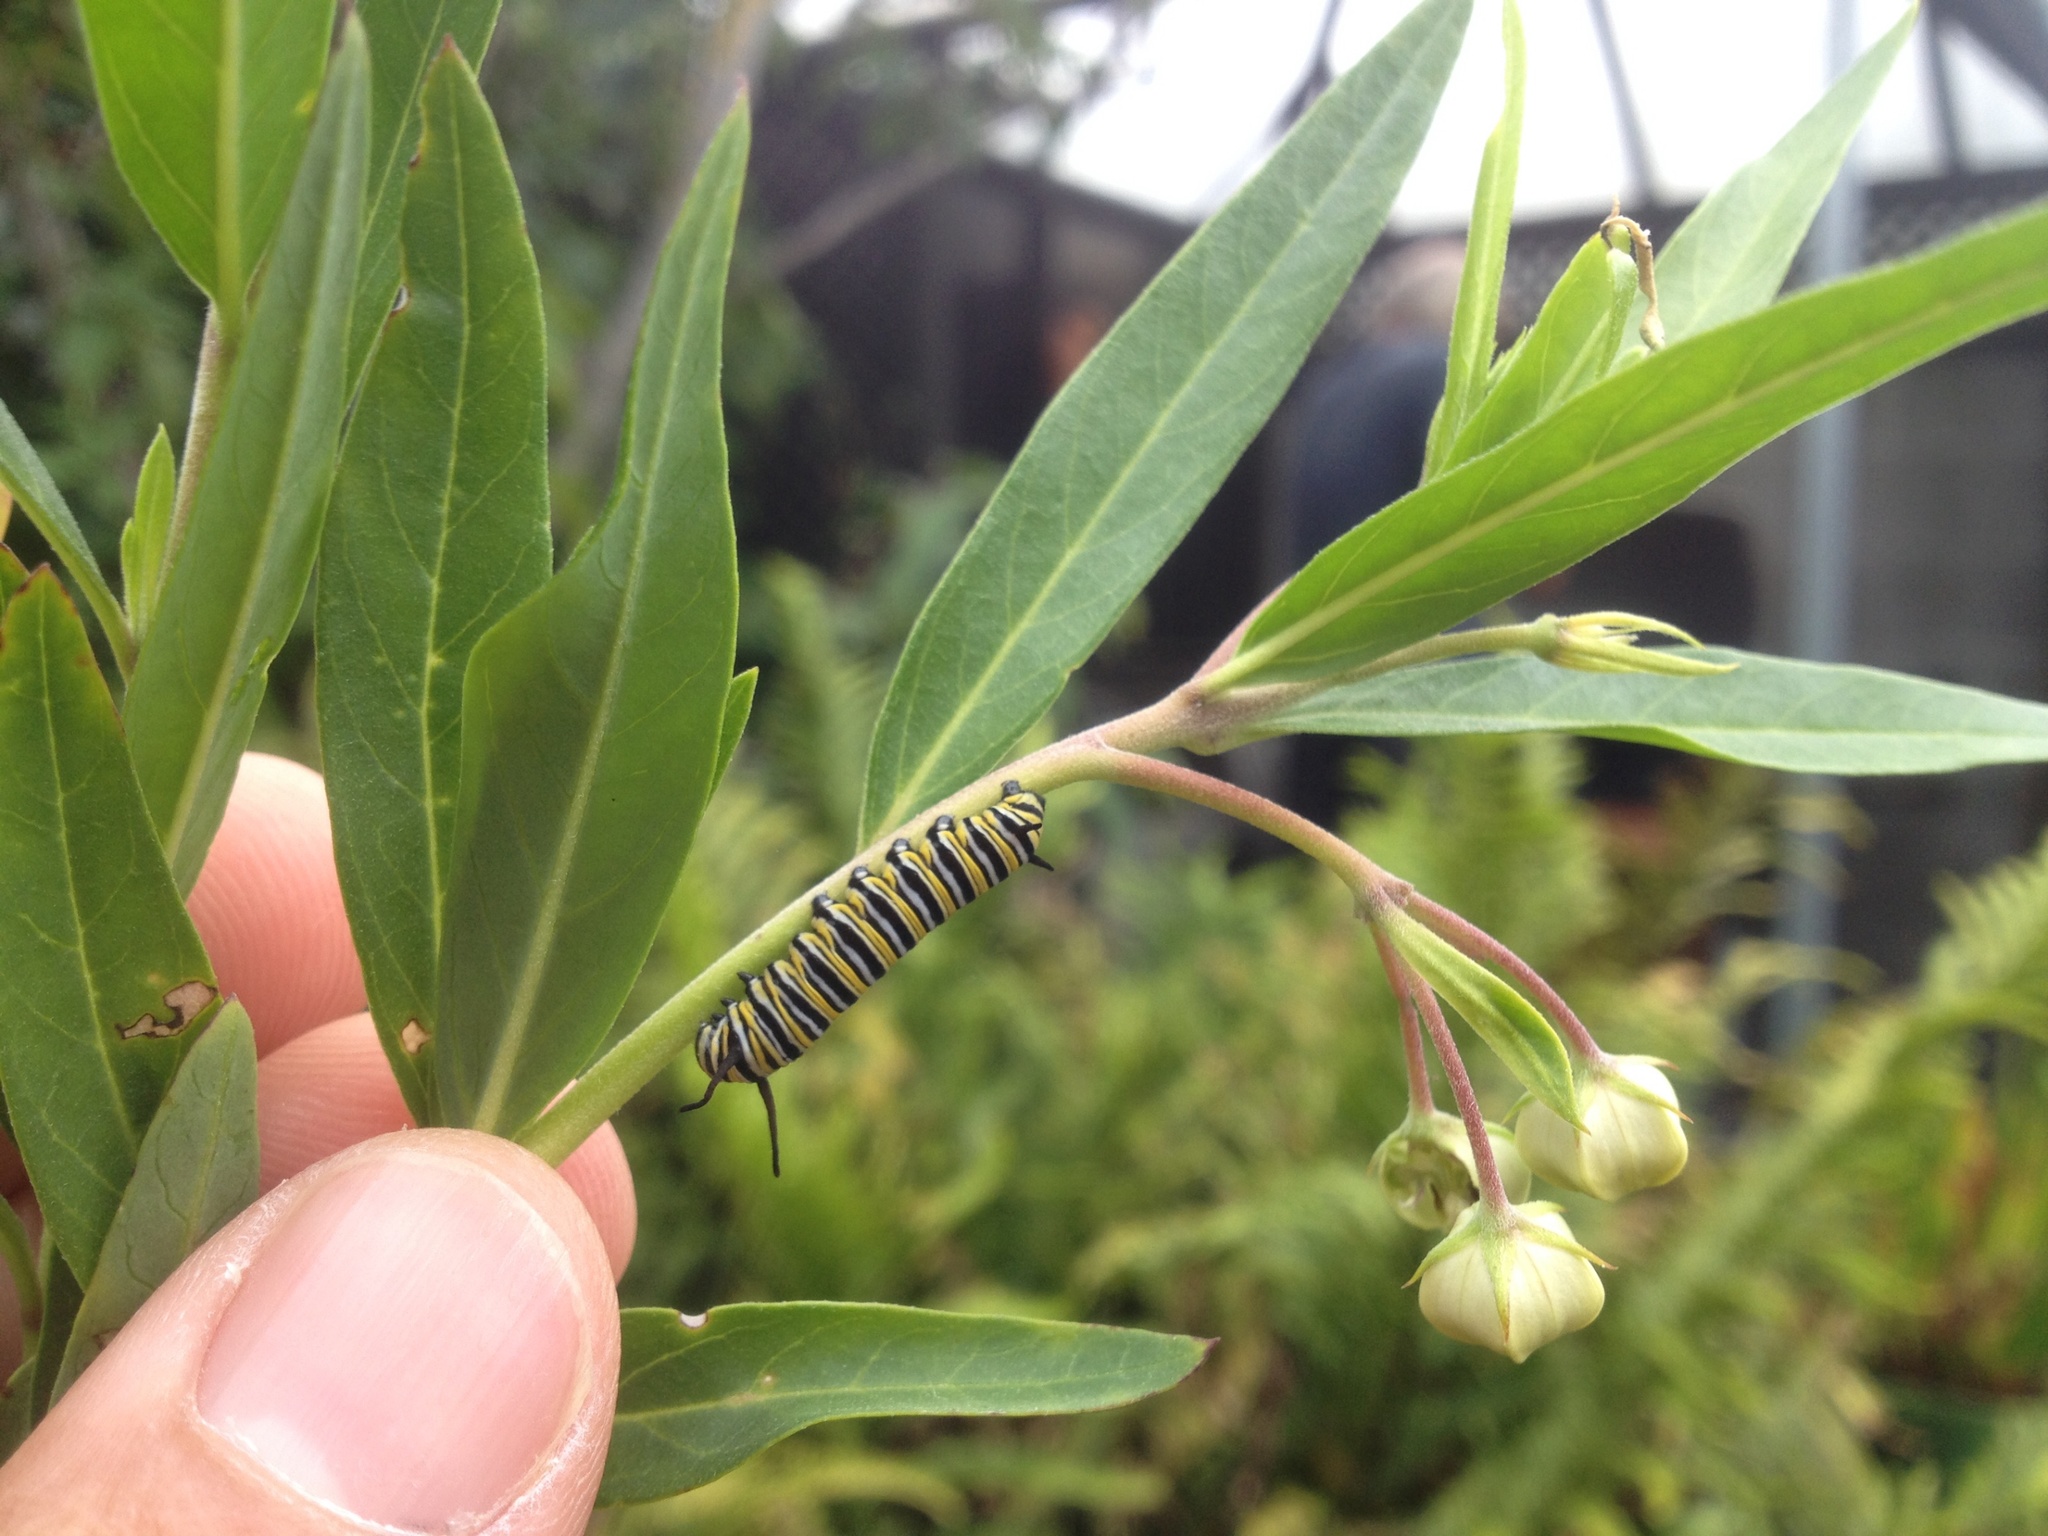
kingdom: Plantae
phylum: Tracheophyta
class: Magnoliopsida
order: Gentianales
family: Apocynaceae
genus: Gomphocarpus
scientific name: Gomphocarpus fruticosus
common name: Milkweed
